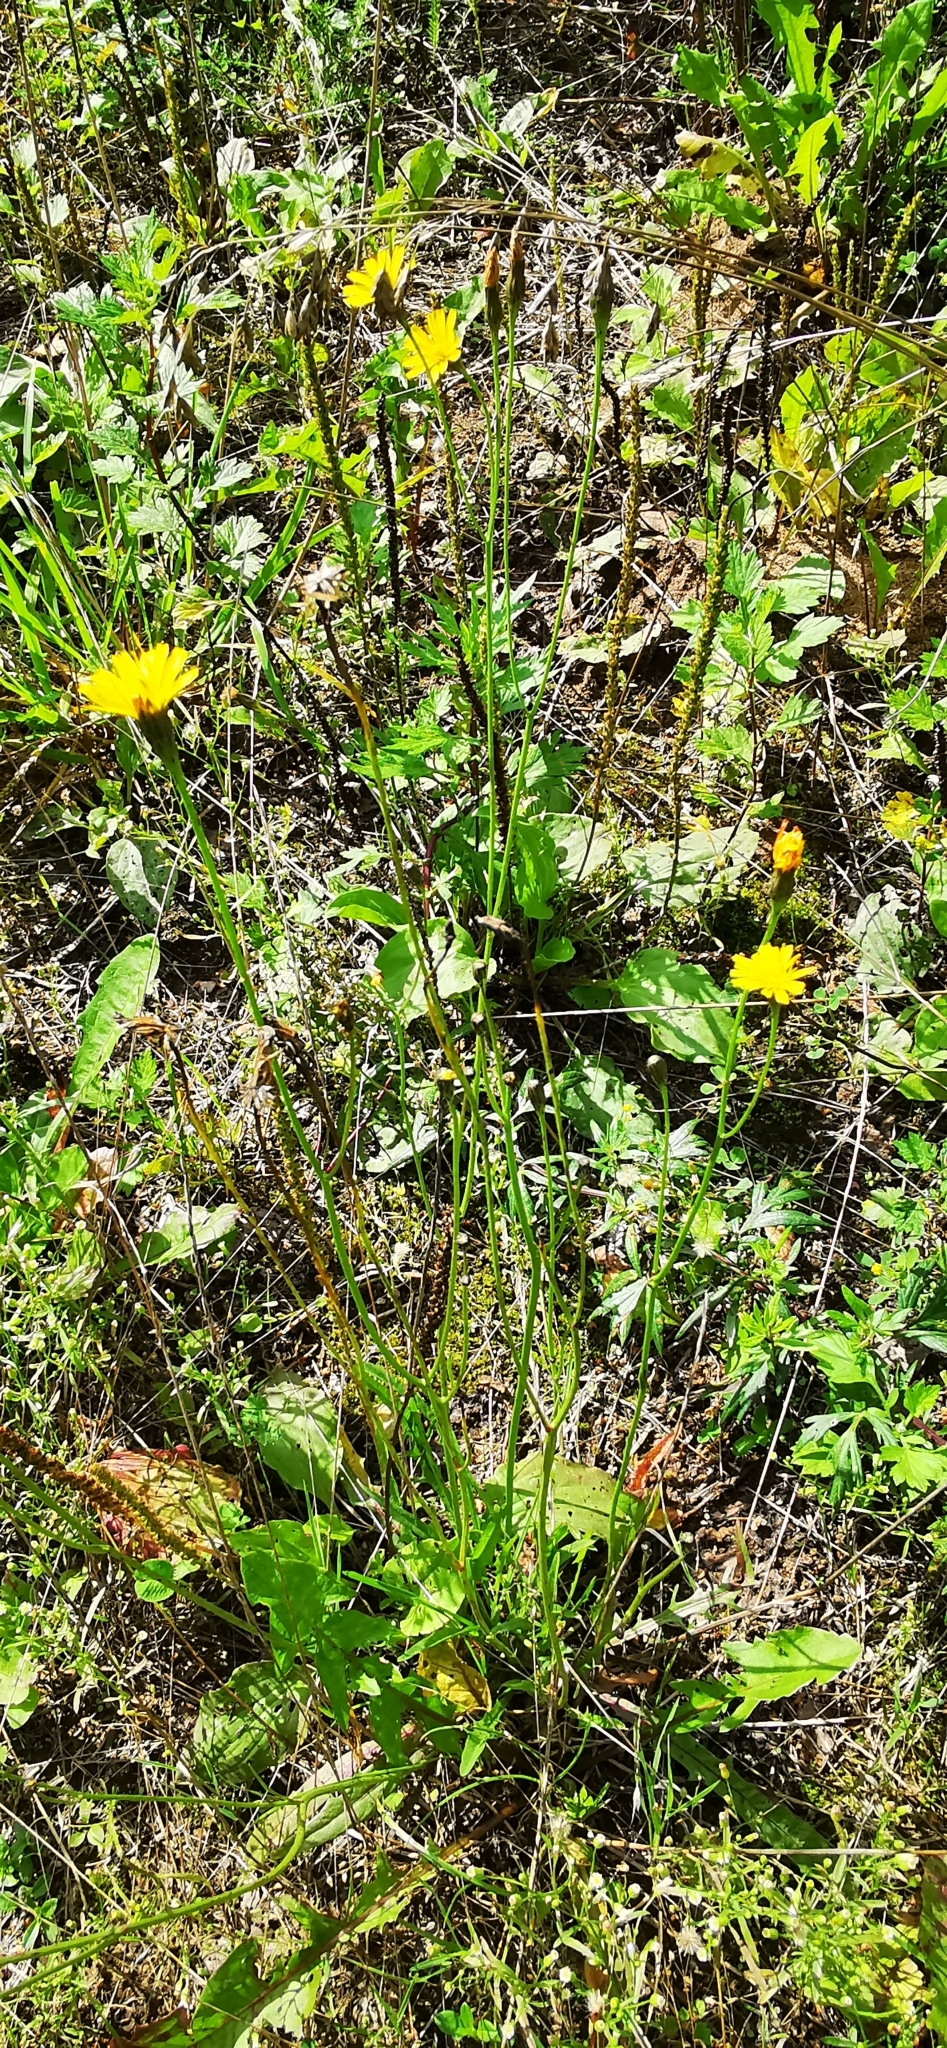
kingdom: Plantae
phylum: Tracheophyta
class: Magnoliopsida
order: Asterales
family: Asteraceae
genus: Scorzoneroides
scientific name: Scorzoneroides autumnalis
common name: Autumn hawkbit
